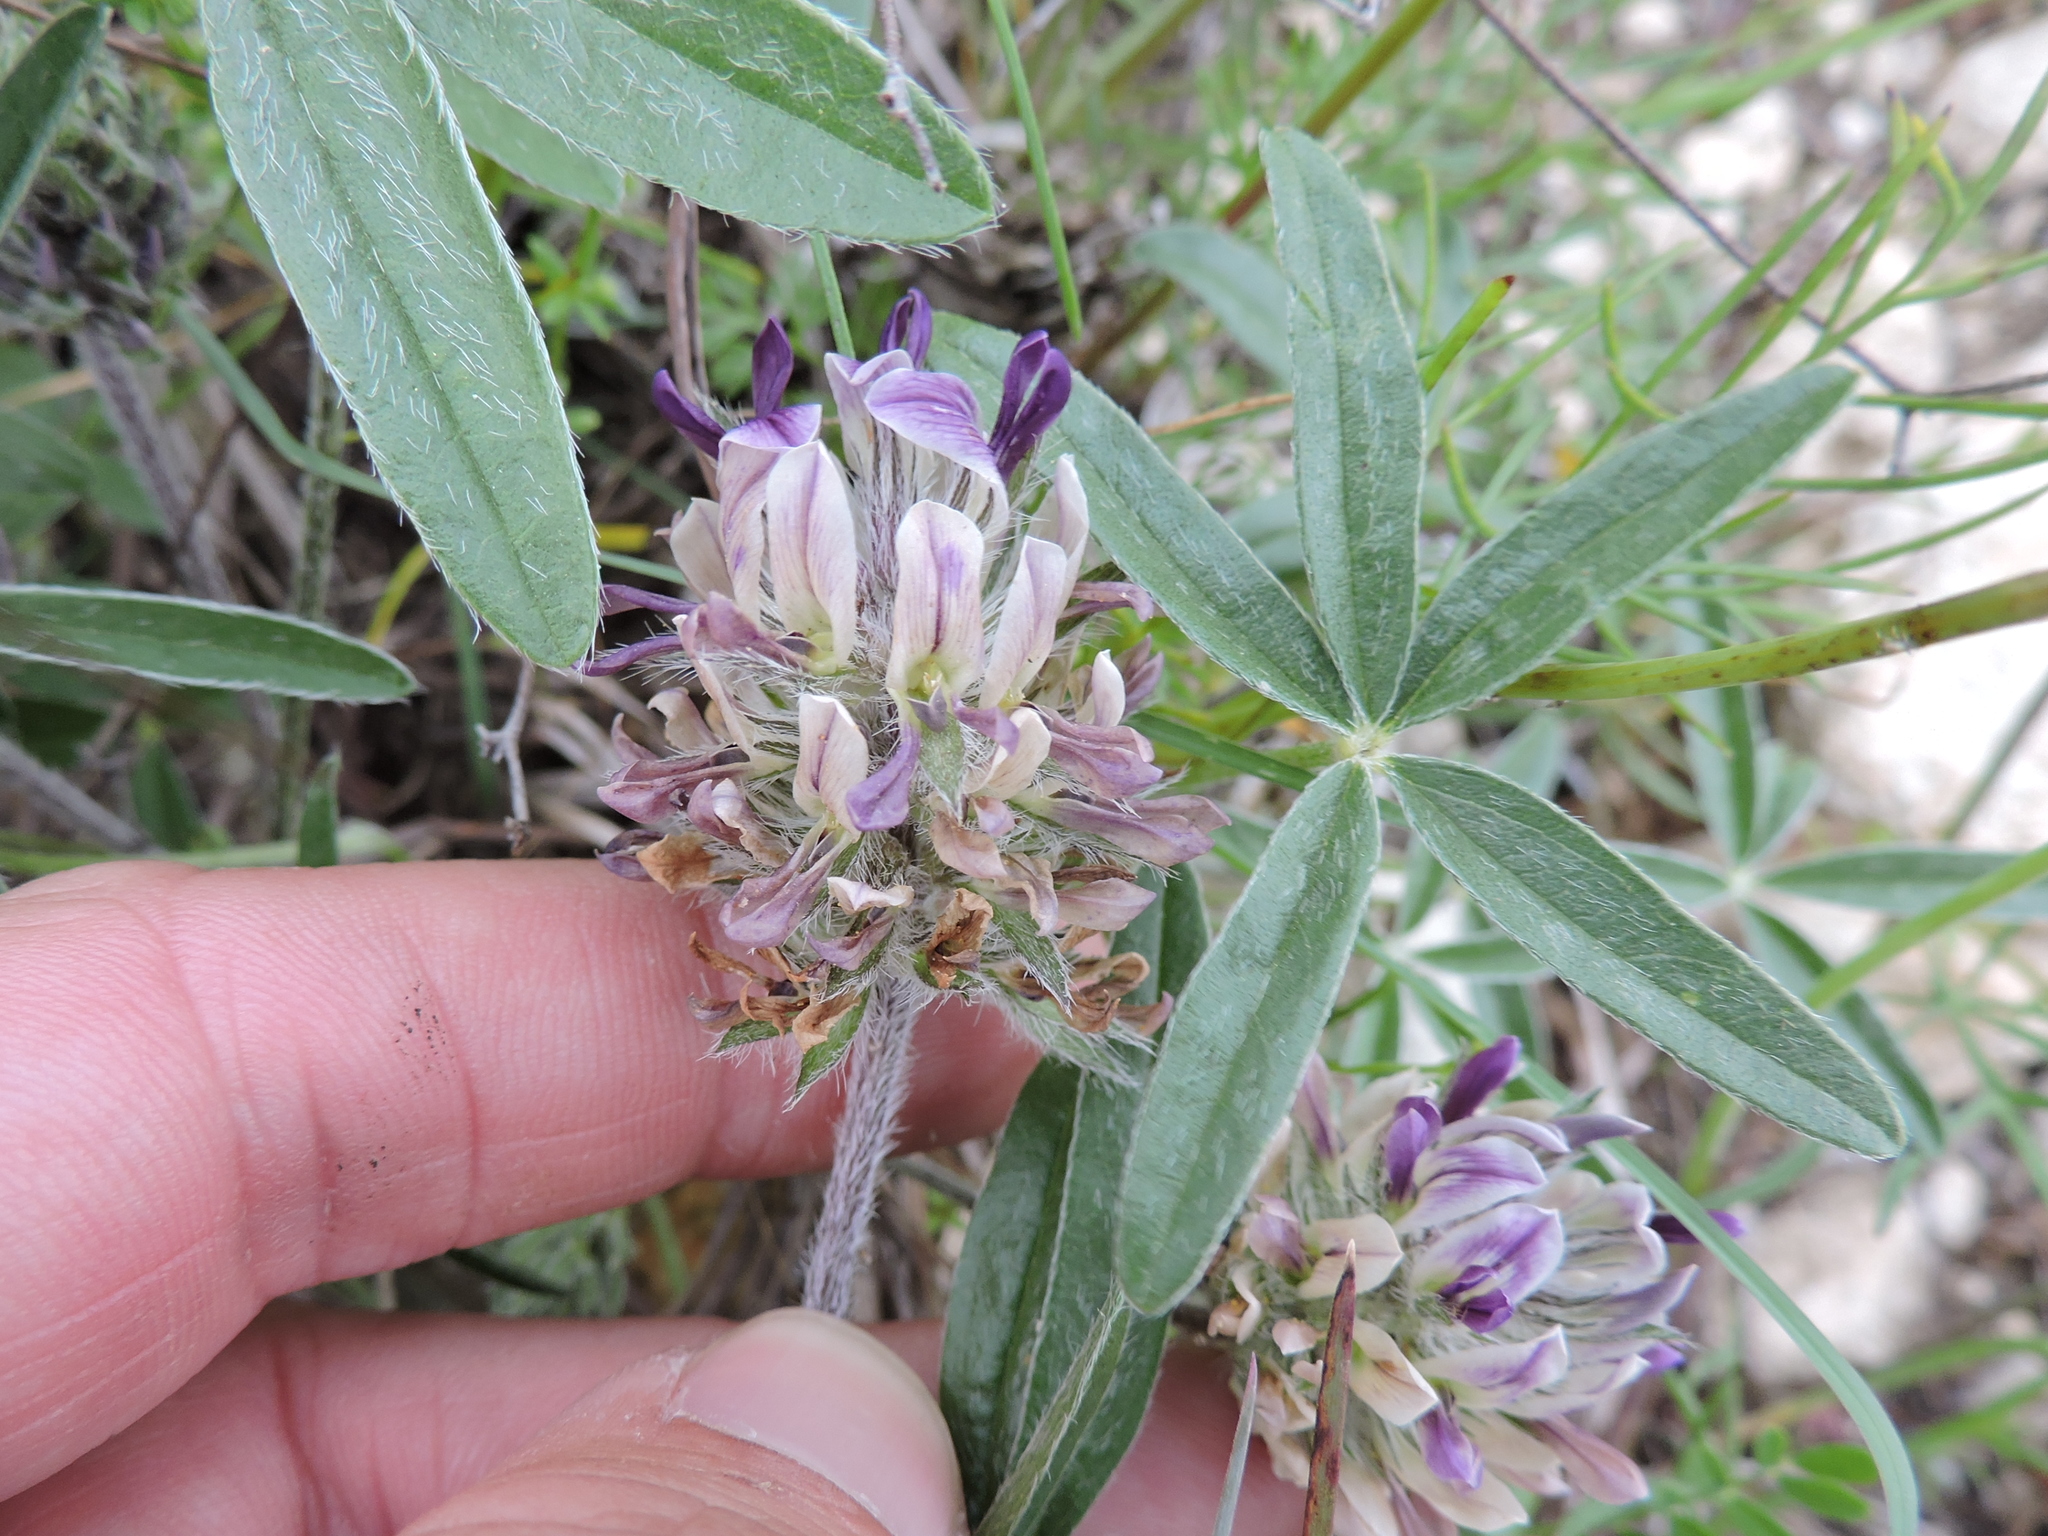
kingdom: Plantae
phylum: Tracheophyta
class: Magnoliopsida
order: Fabales
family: Fabaceae
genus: Pediomelum
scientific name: Pediomelum hypogaeum
